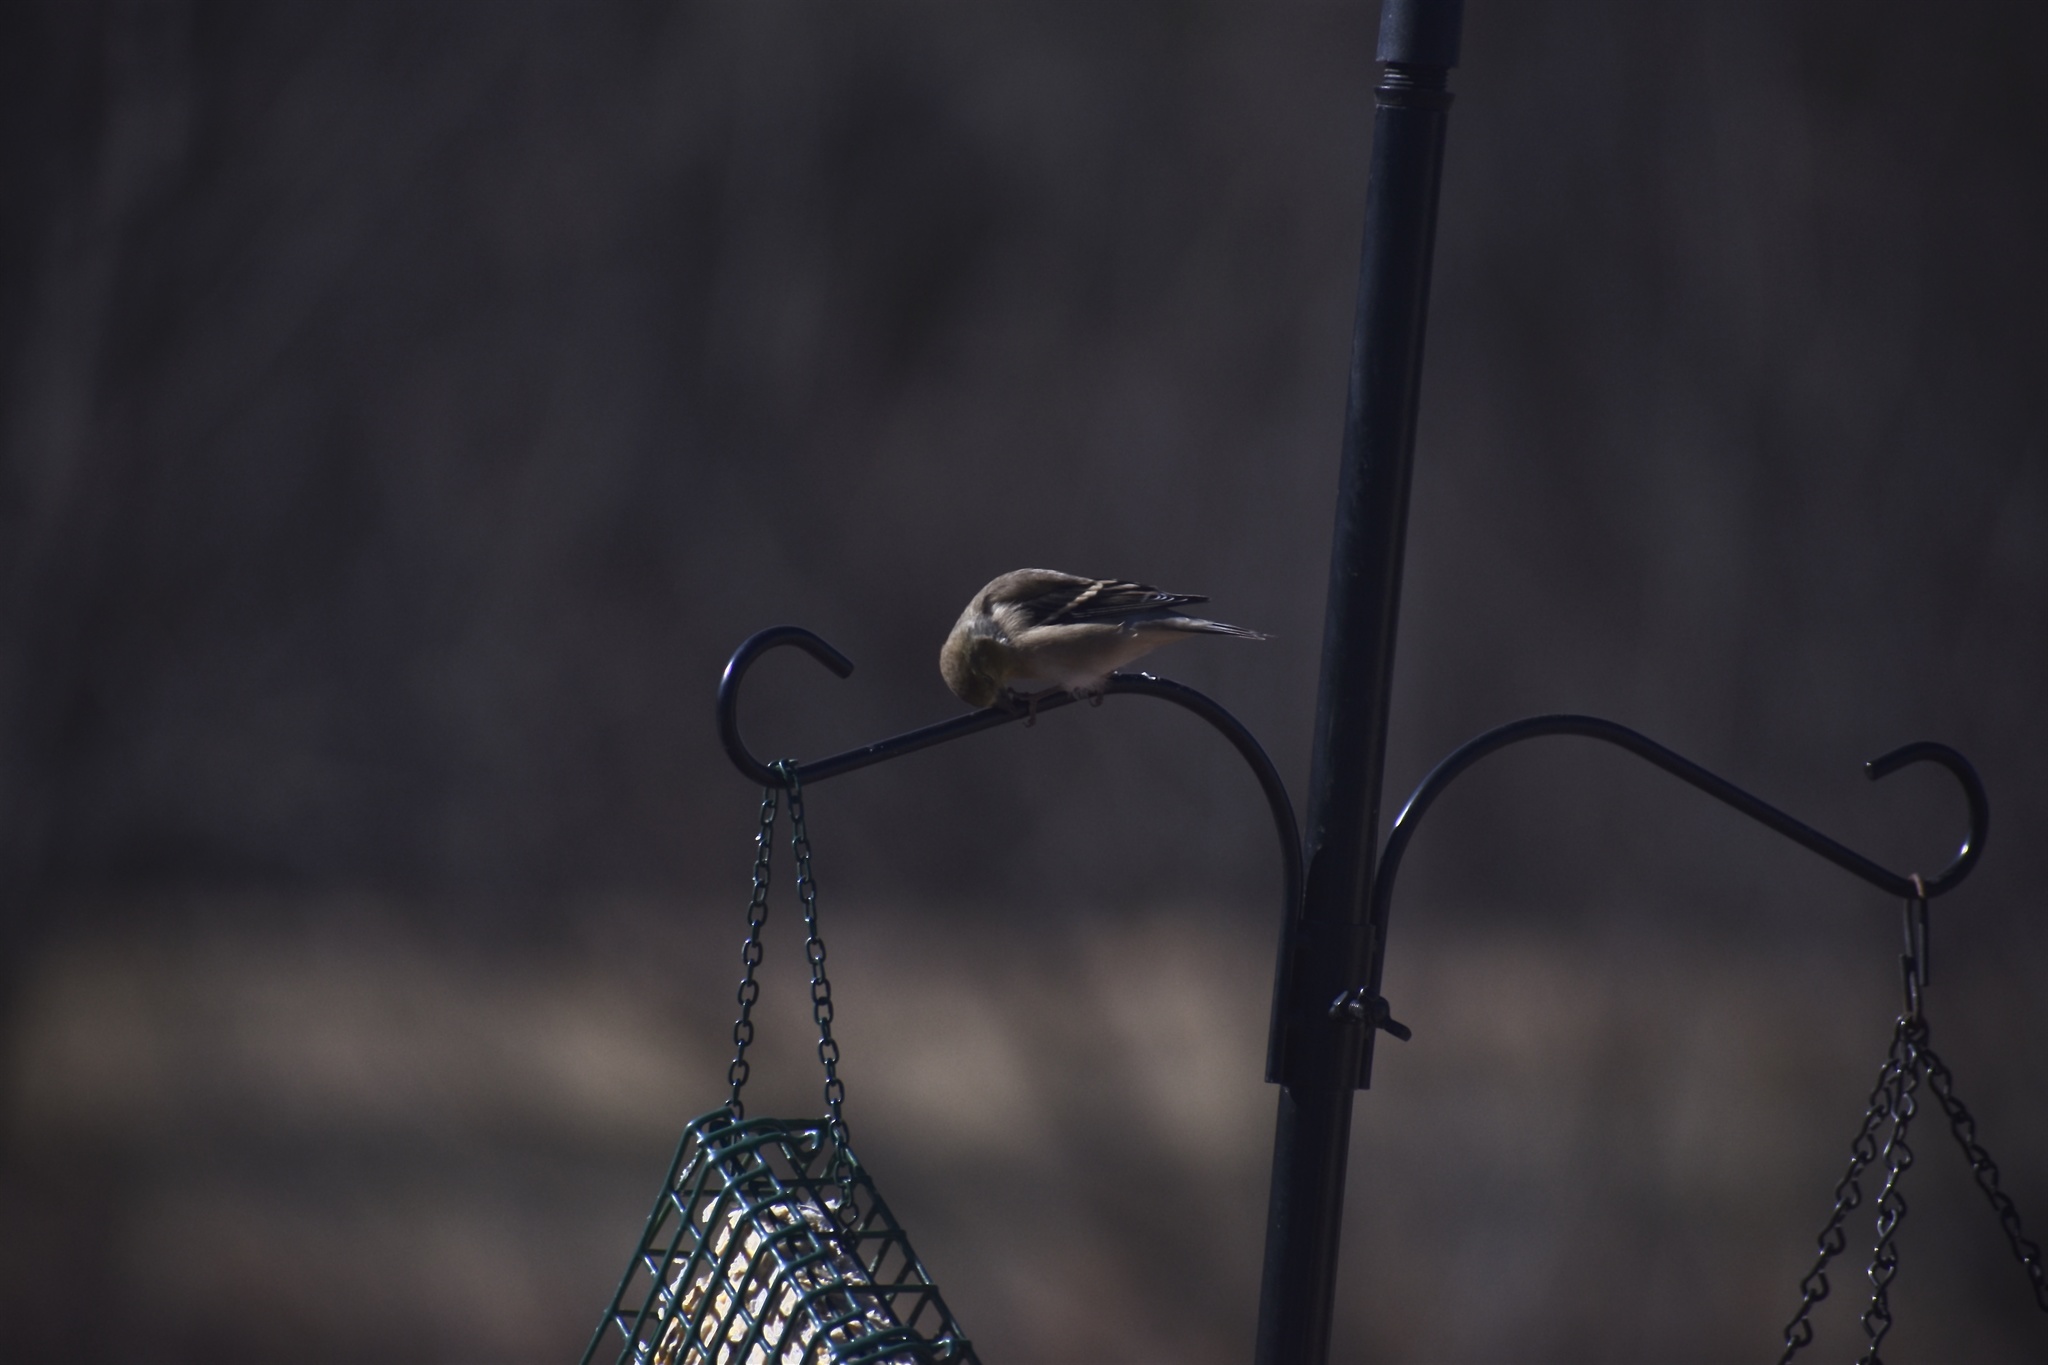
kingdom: Animalia
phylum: Chordata
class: Aves
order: Passeriformes
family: Fringillidae
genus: Spinus
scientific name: Spinus tristis
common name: American goldfinch
